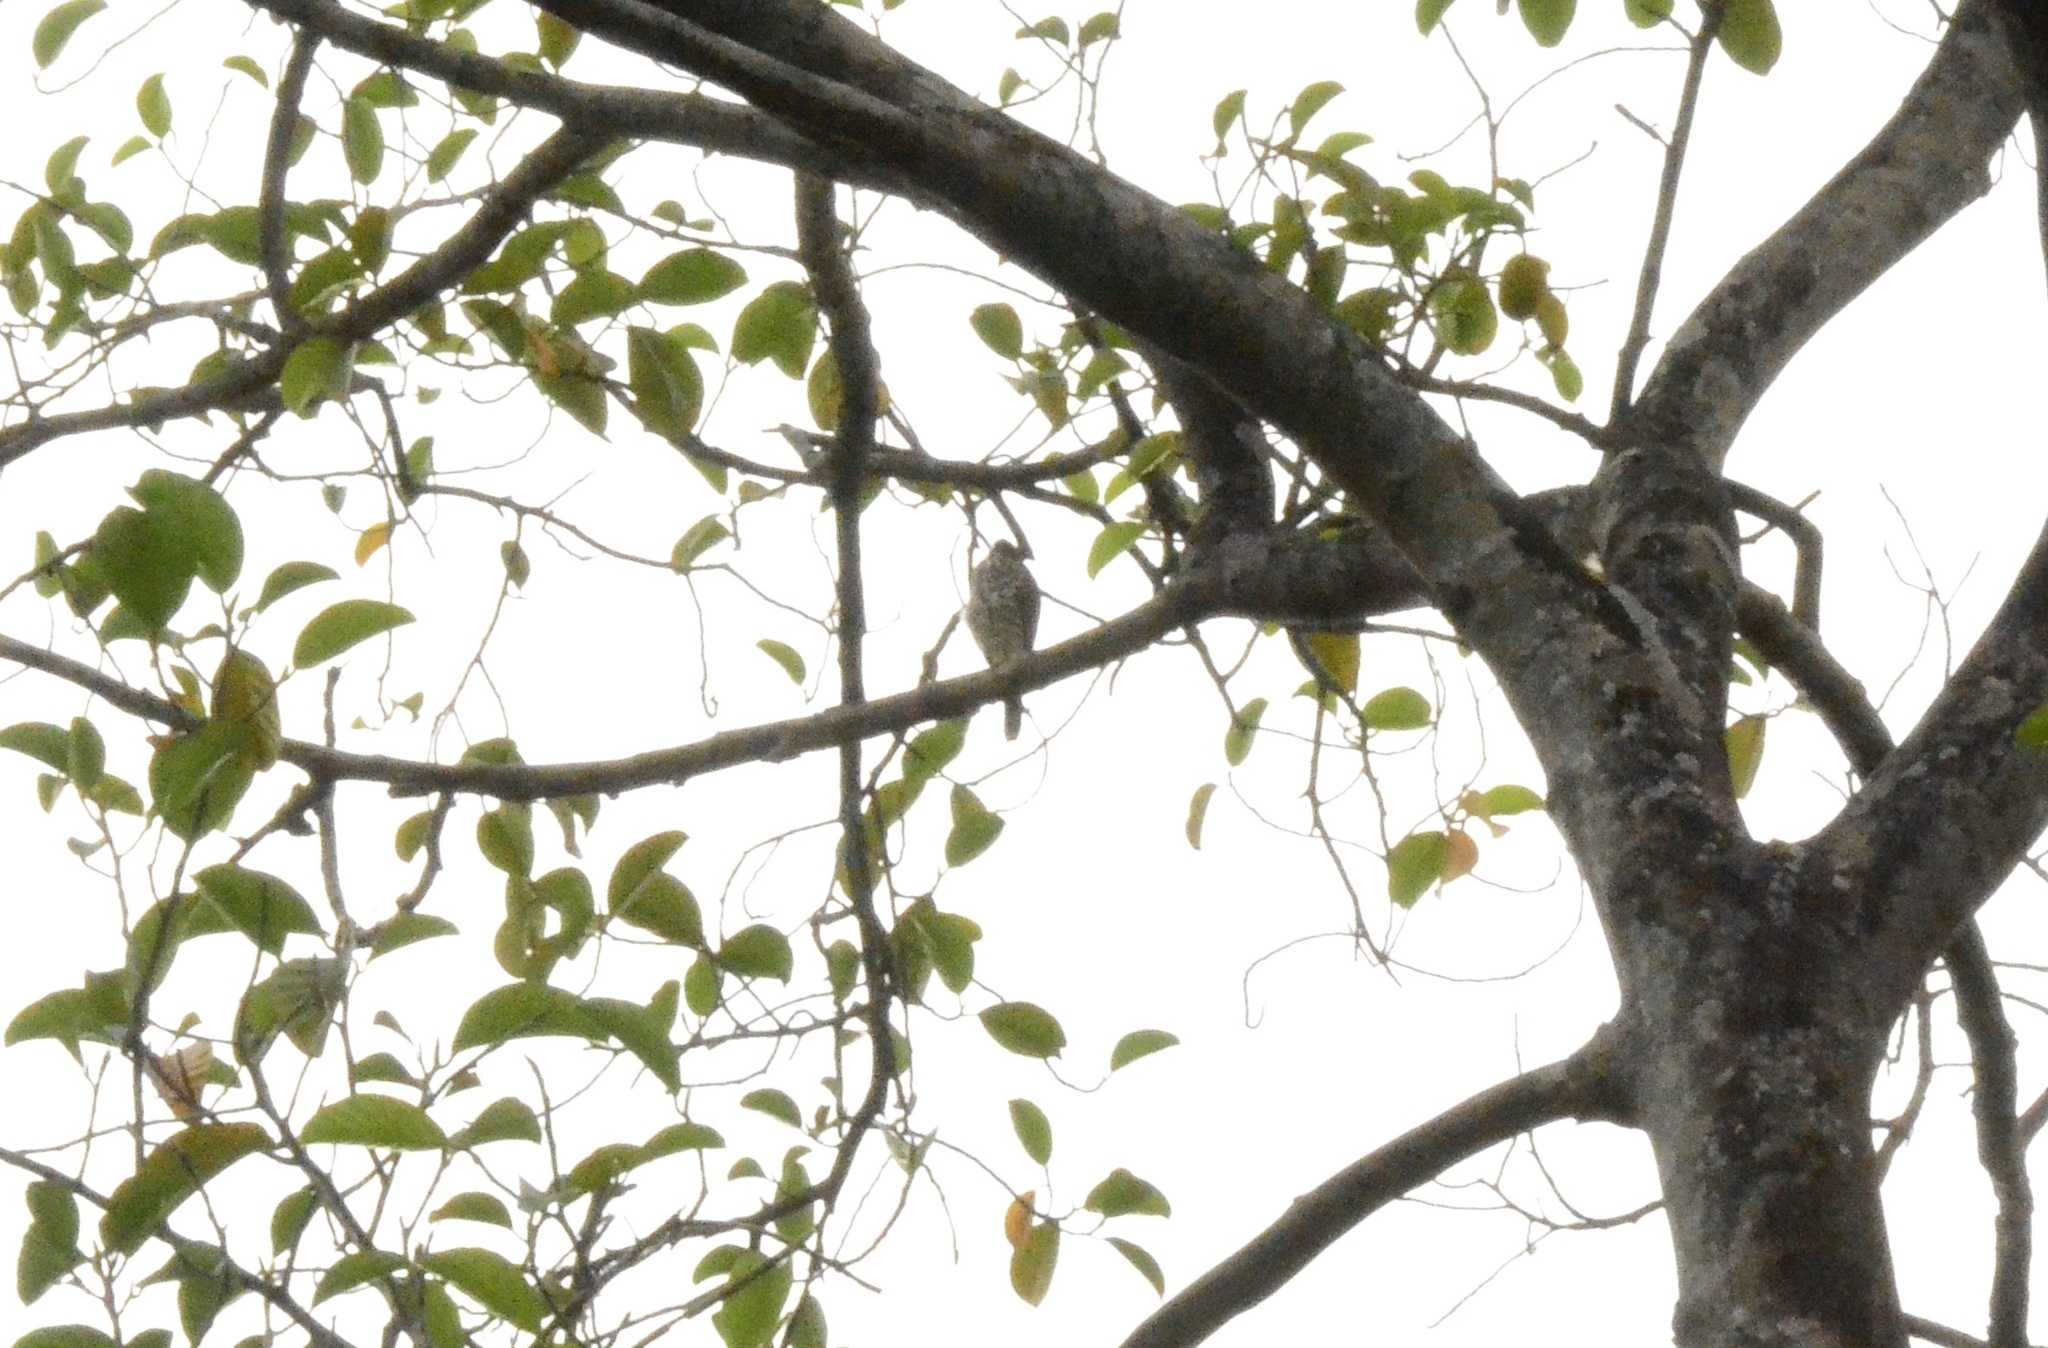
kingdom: Animalia
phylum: Chordata
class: Aves
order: Accipitriformes
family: Accipitridae
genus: Accipiter
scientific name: Accipiter badius
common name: Shikra
